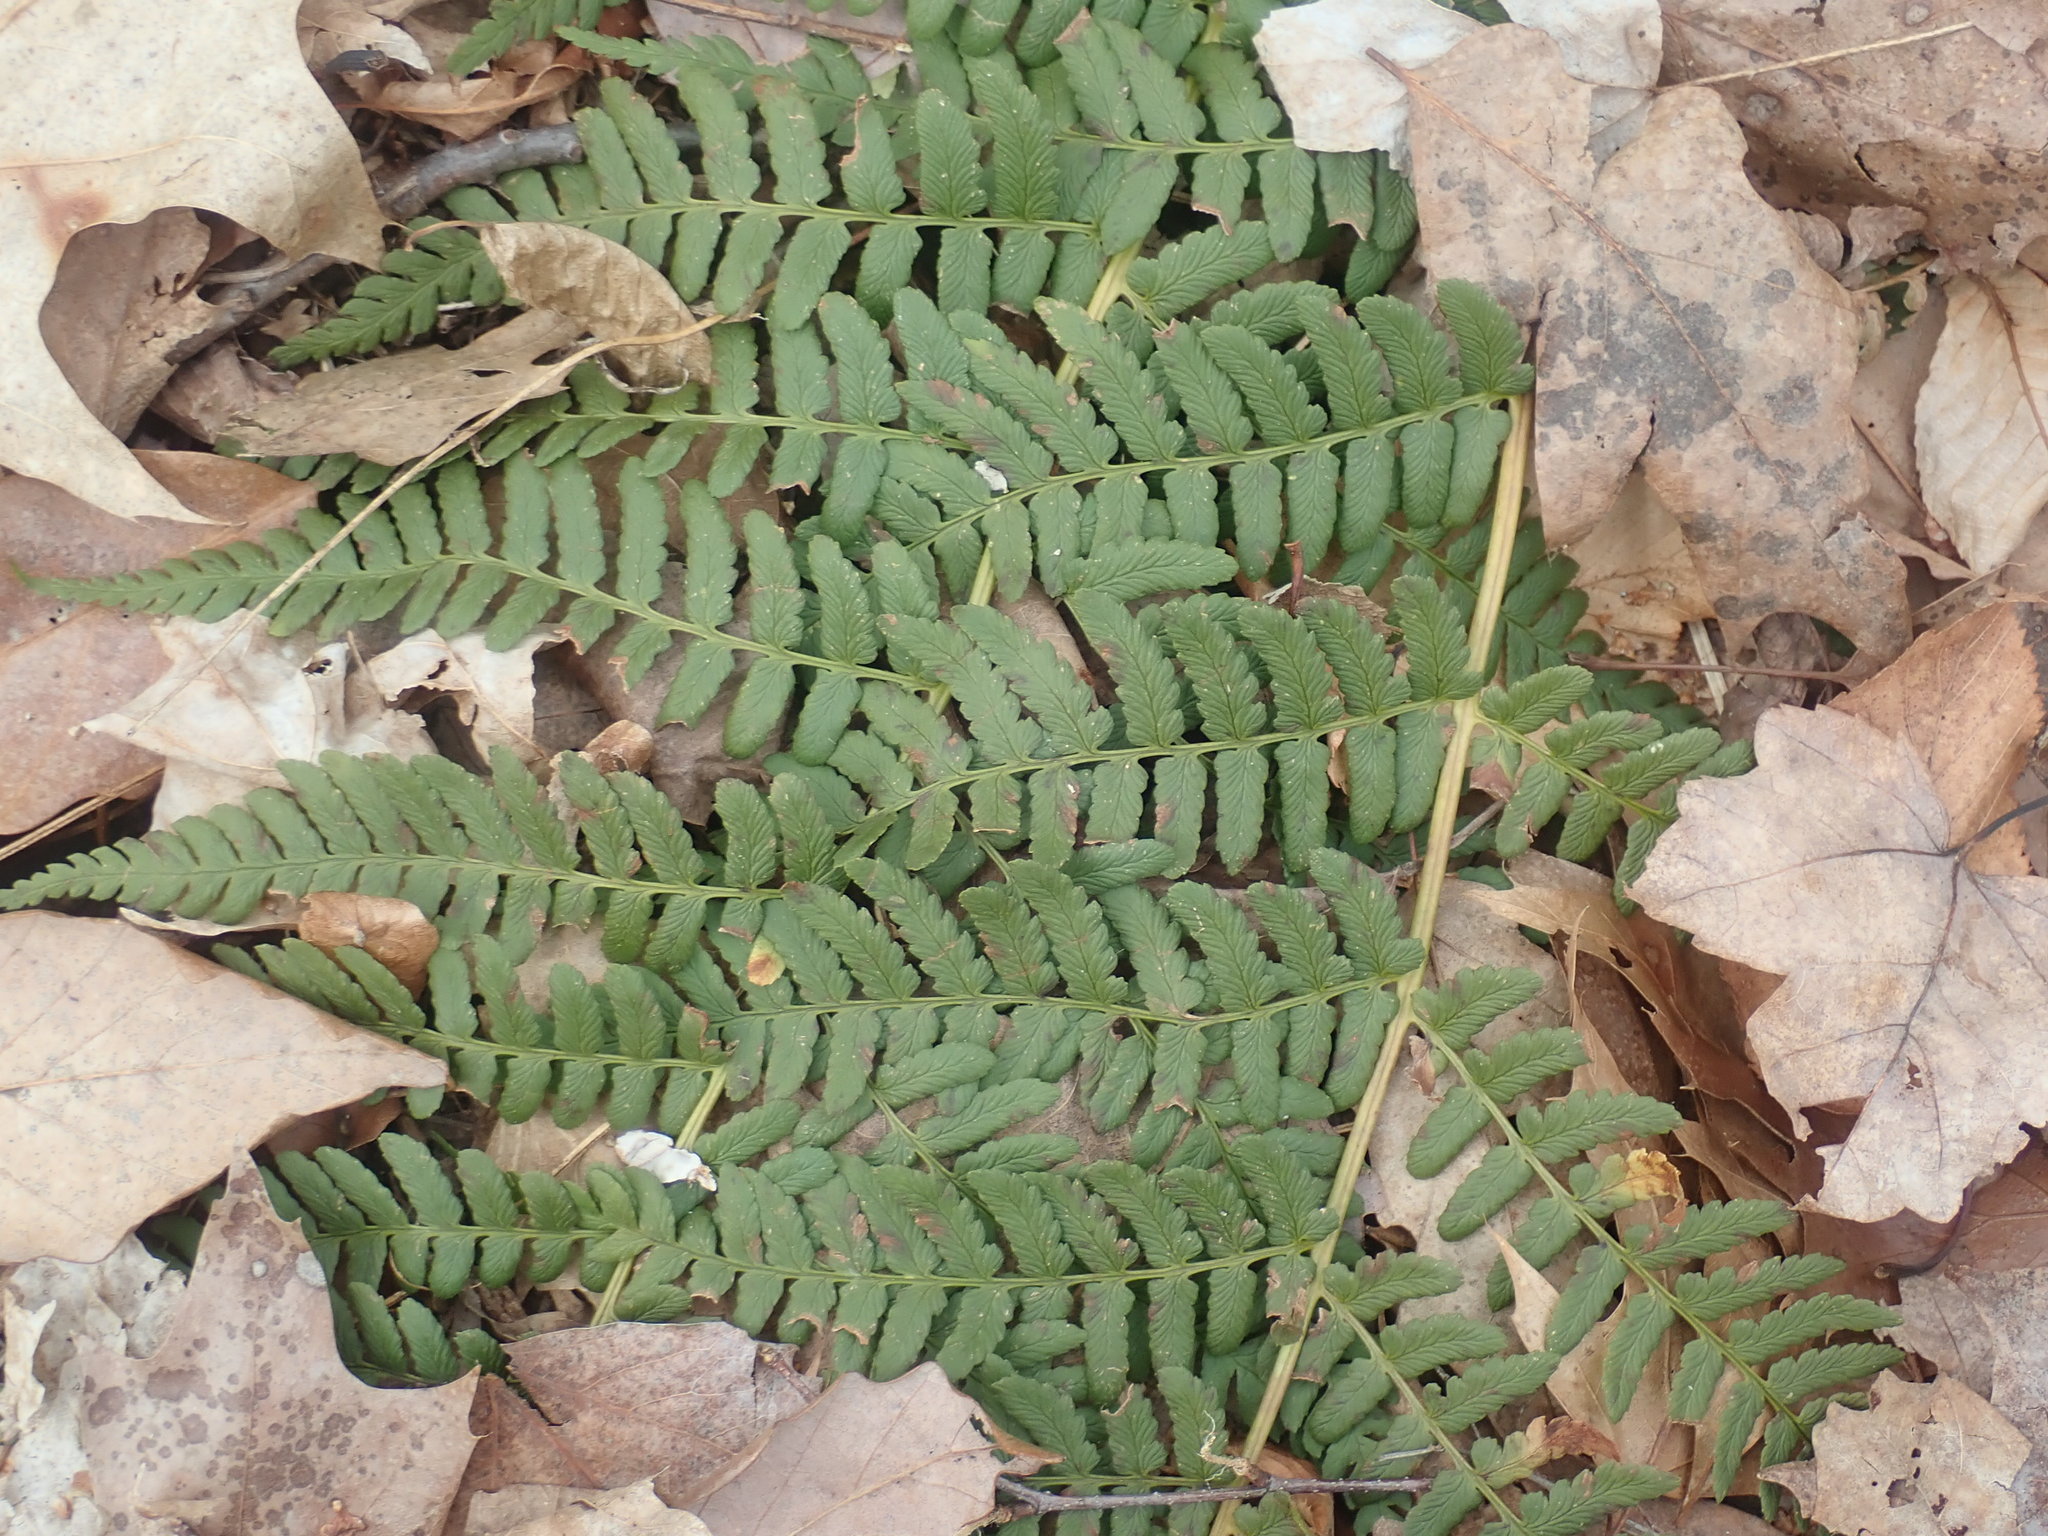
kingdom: Plantae
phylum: Tracheophyta
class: Polypodiopsida
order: Polypodiales
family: Dryopteridaceae
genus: Dryopteris
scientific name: Dryopteris marginalis
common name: Marginal wood fern
